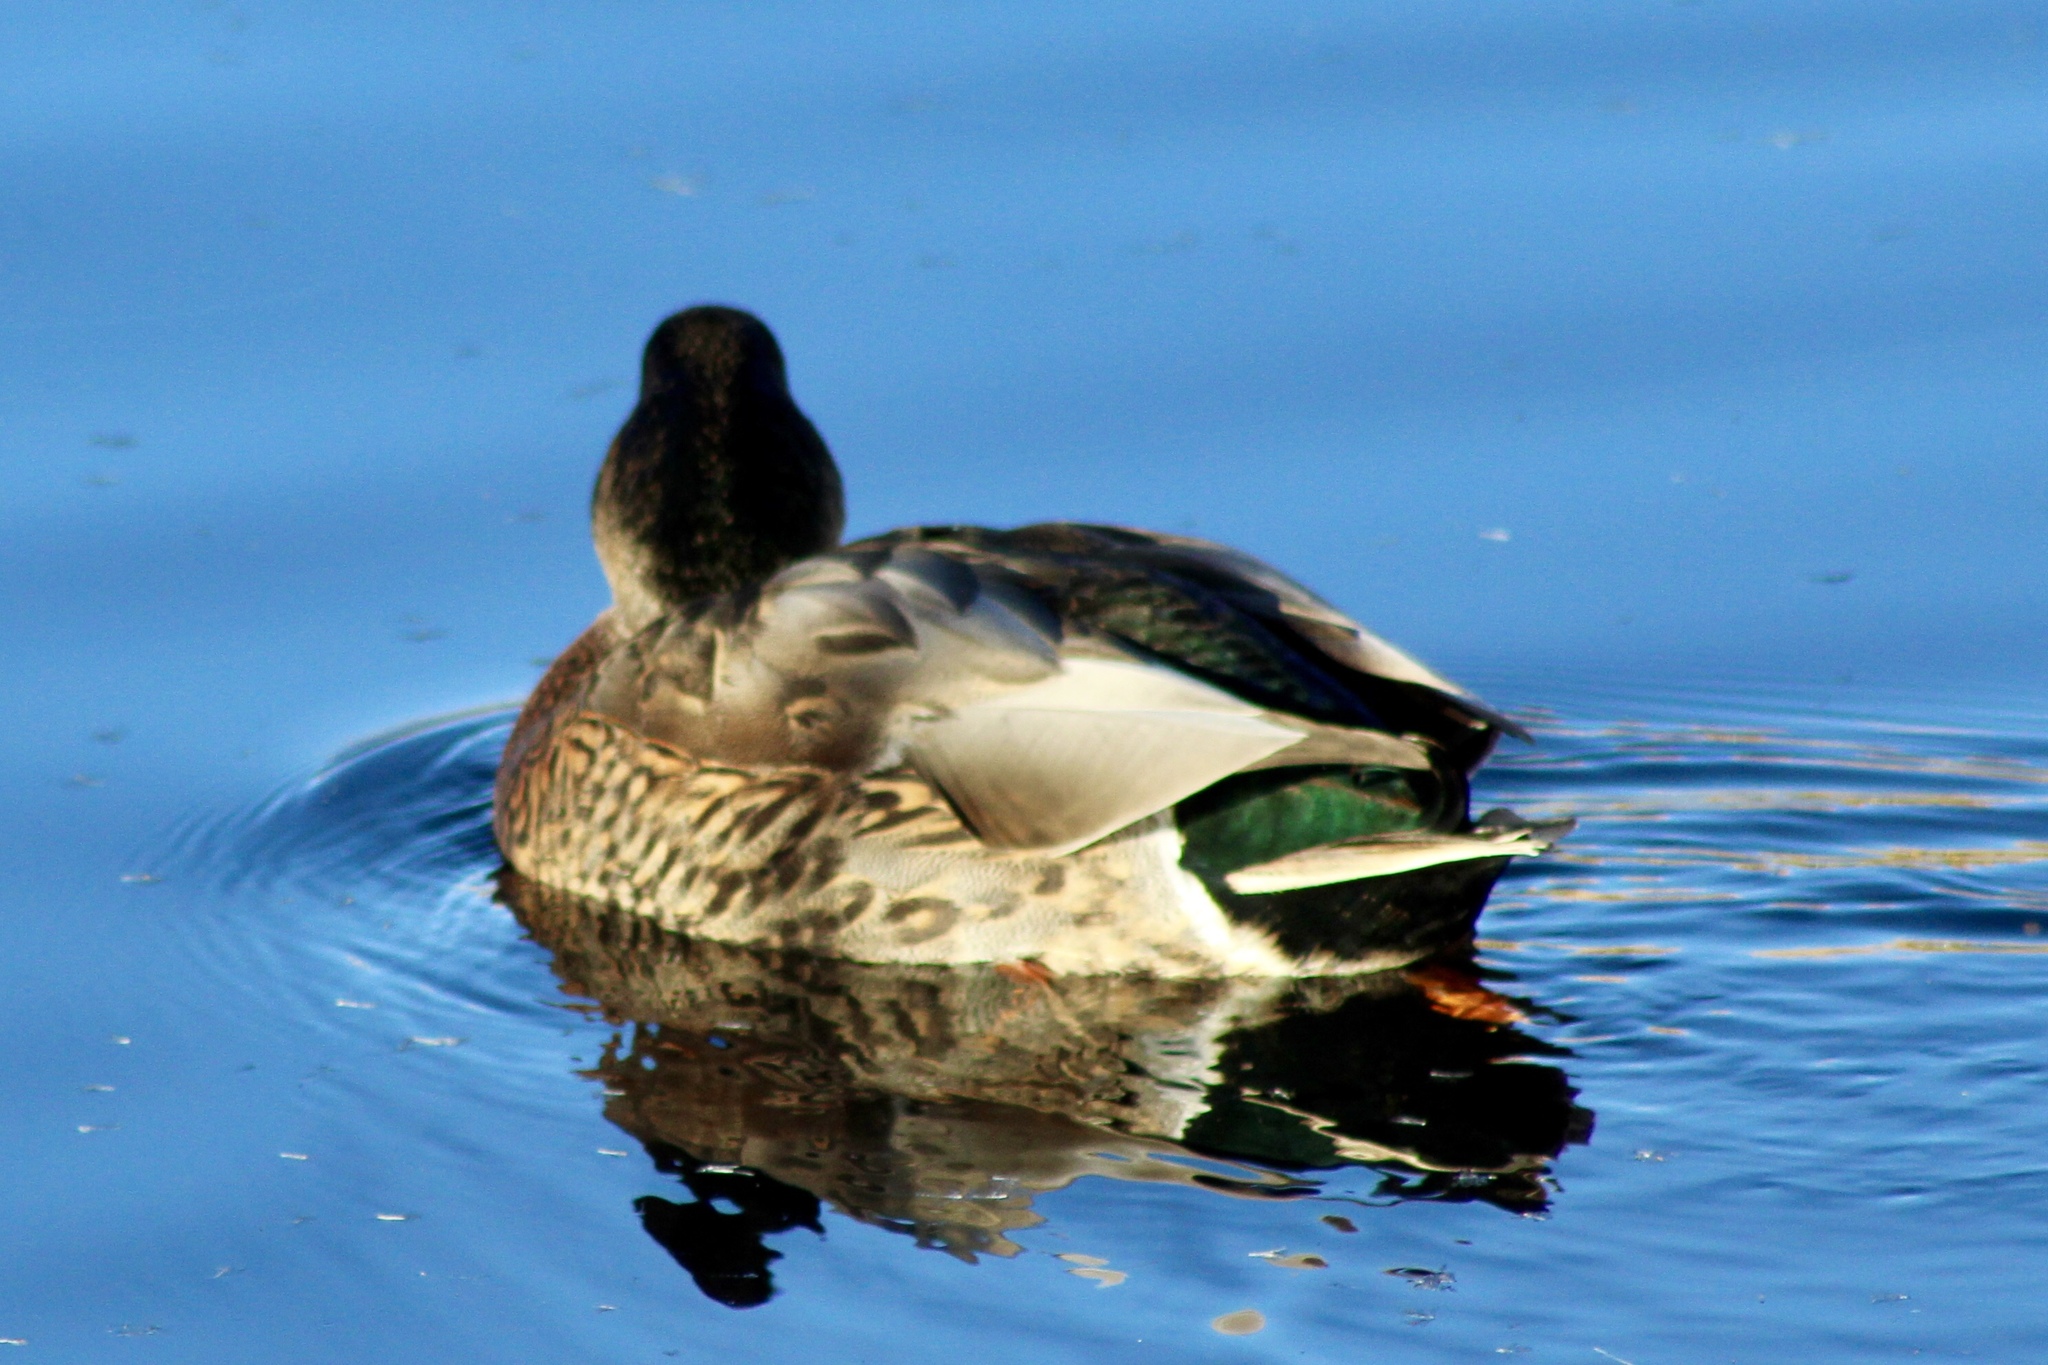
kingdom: Animalia
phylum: Chordata
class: Aves
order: Anseriformes
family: Anatidae
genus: Anas
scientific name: Anas
